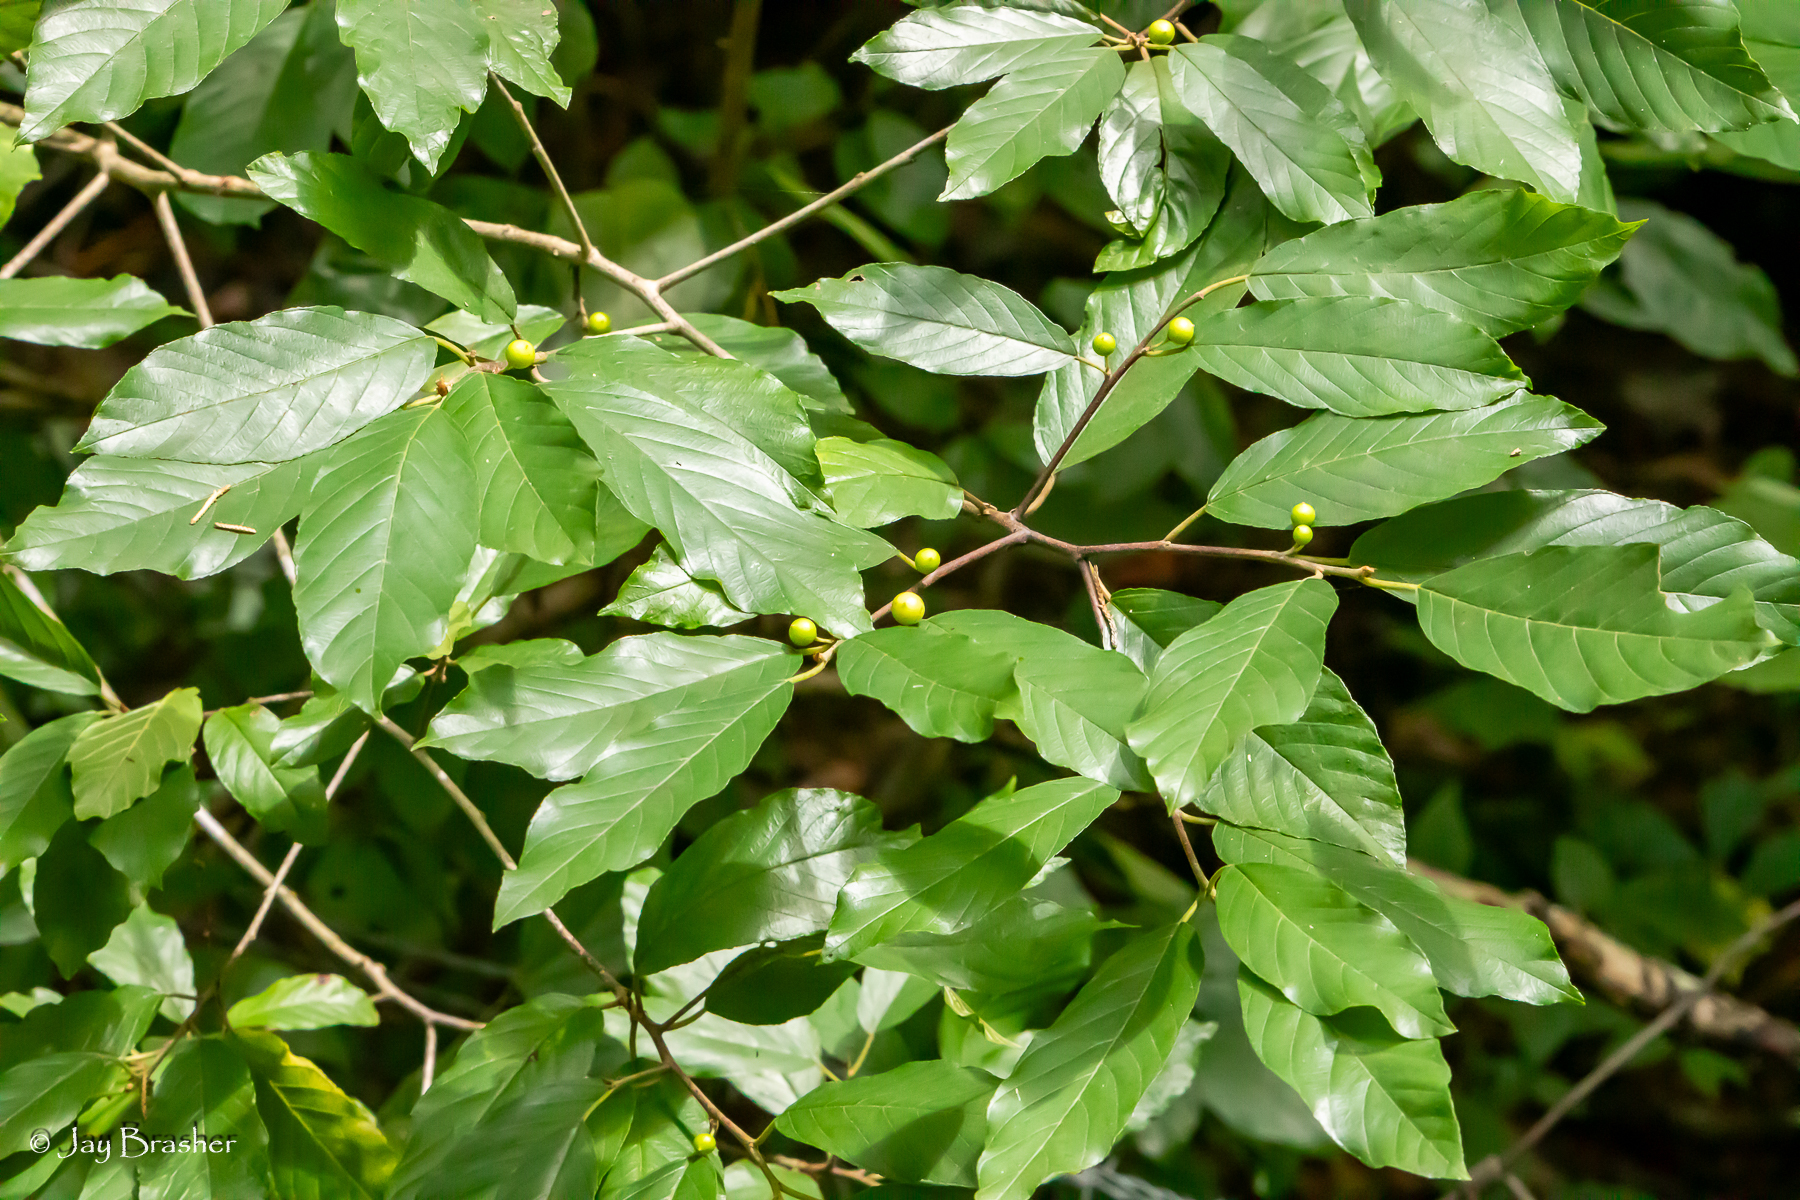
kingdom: Plantae
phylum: Tracheophyta
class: Magnoliopsida
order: Rosales
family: Rhamnaceae
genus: Frangula
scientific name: Frangula caroliniana
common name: Carolina buckthorn
